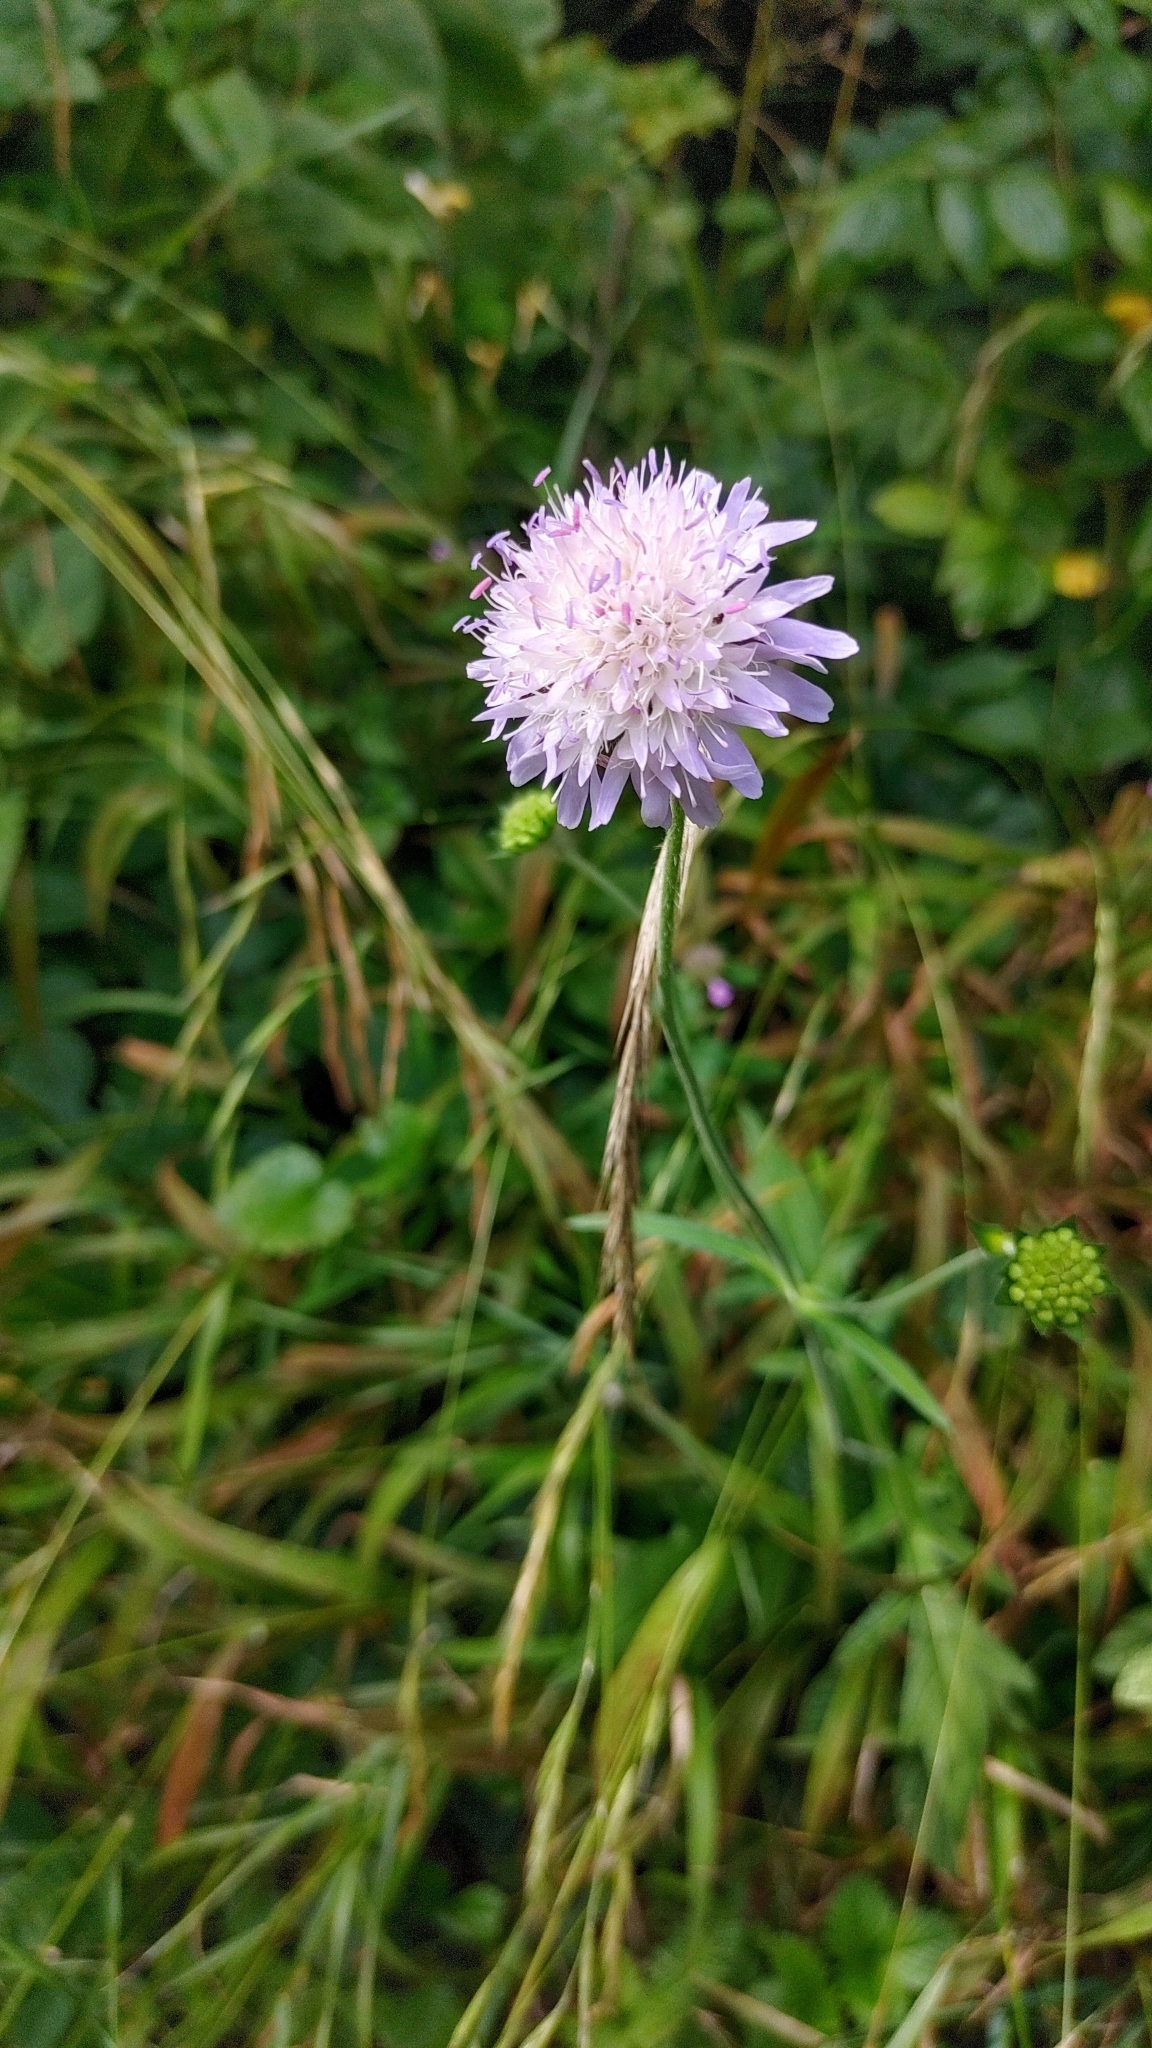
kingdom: Plantae
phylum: Tracheophyta
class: Magnoliopsida
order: Dipsacales
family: Caprifoliaceae
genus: Knautia
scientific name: Knautia arvensis
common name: Field scabiosa
